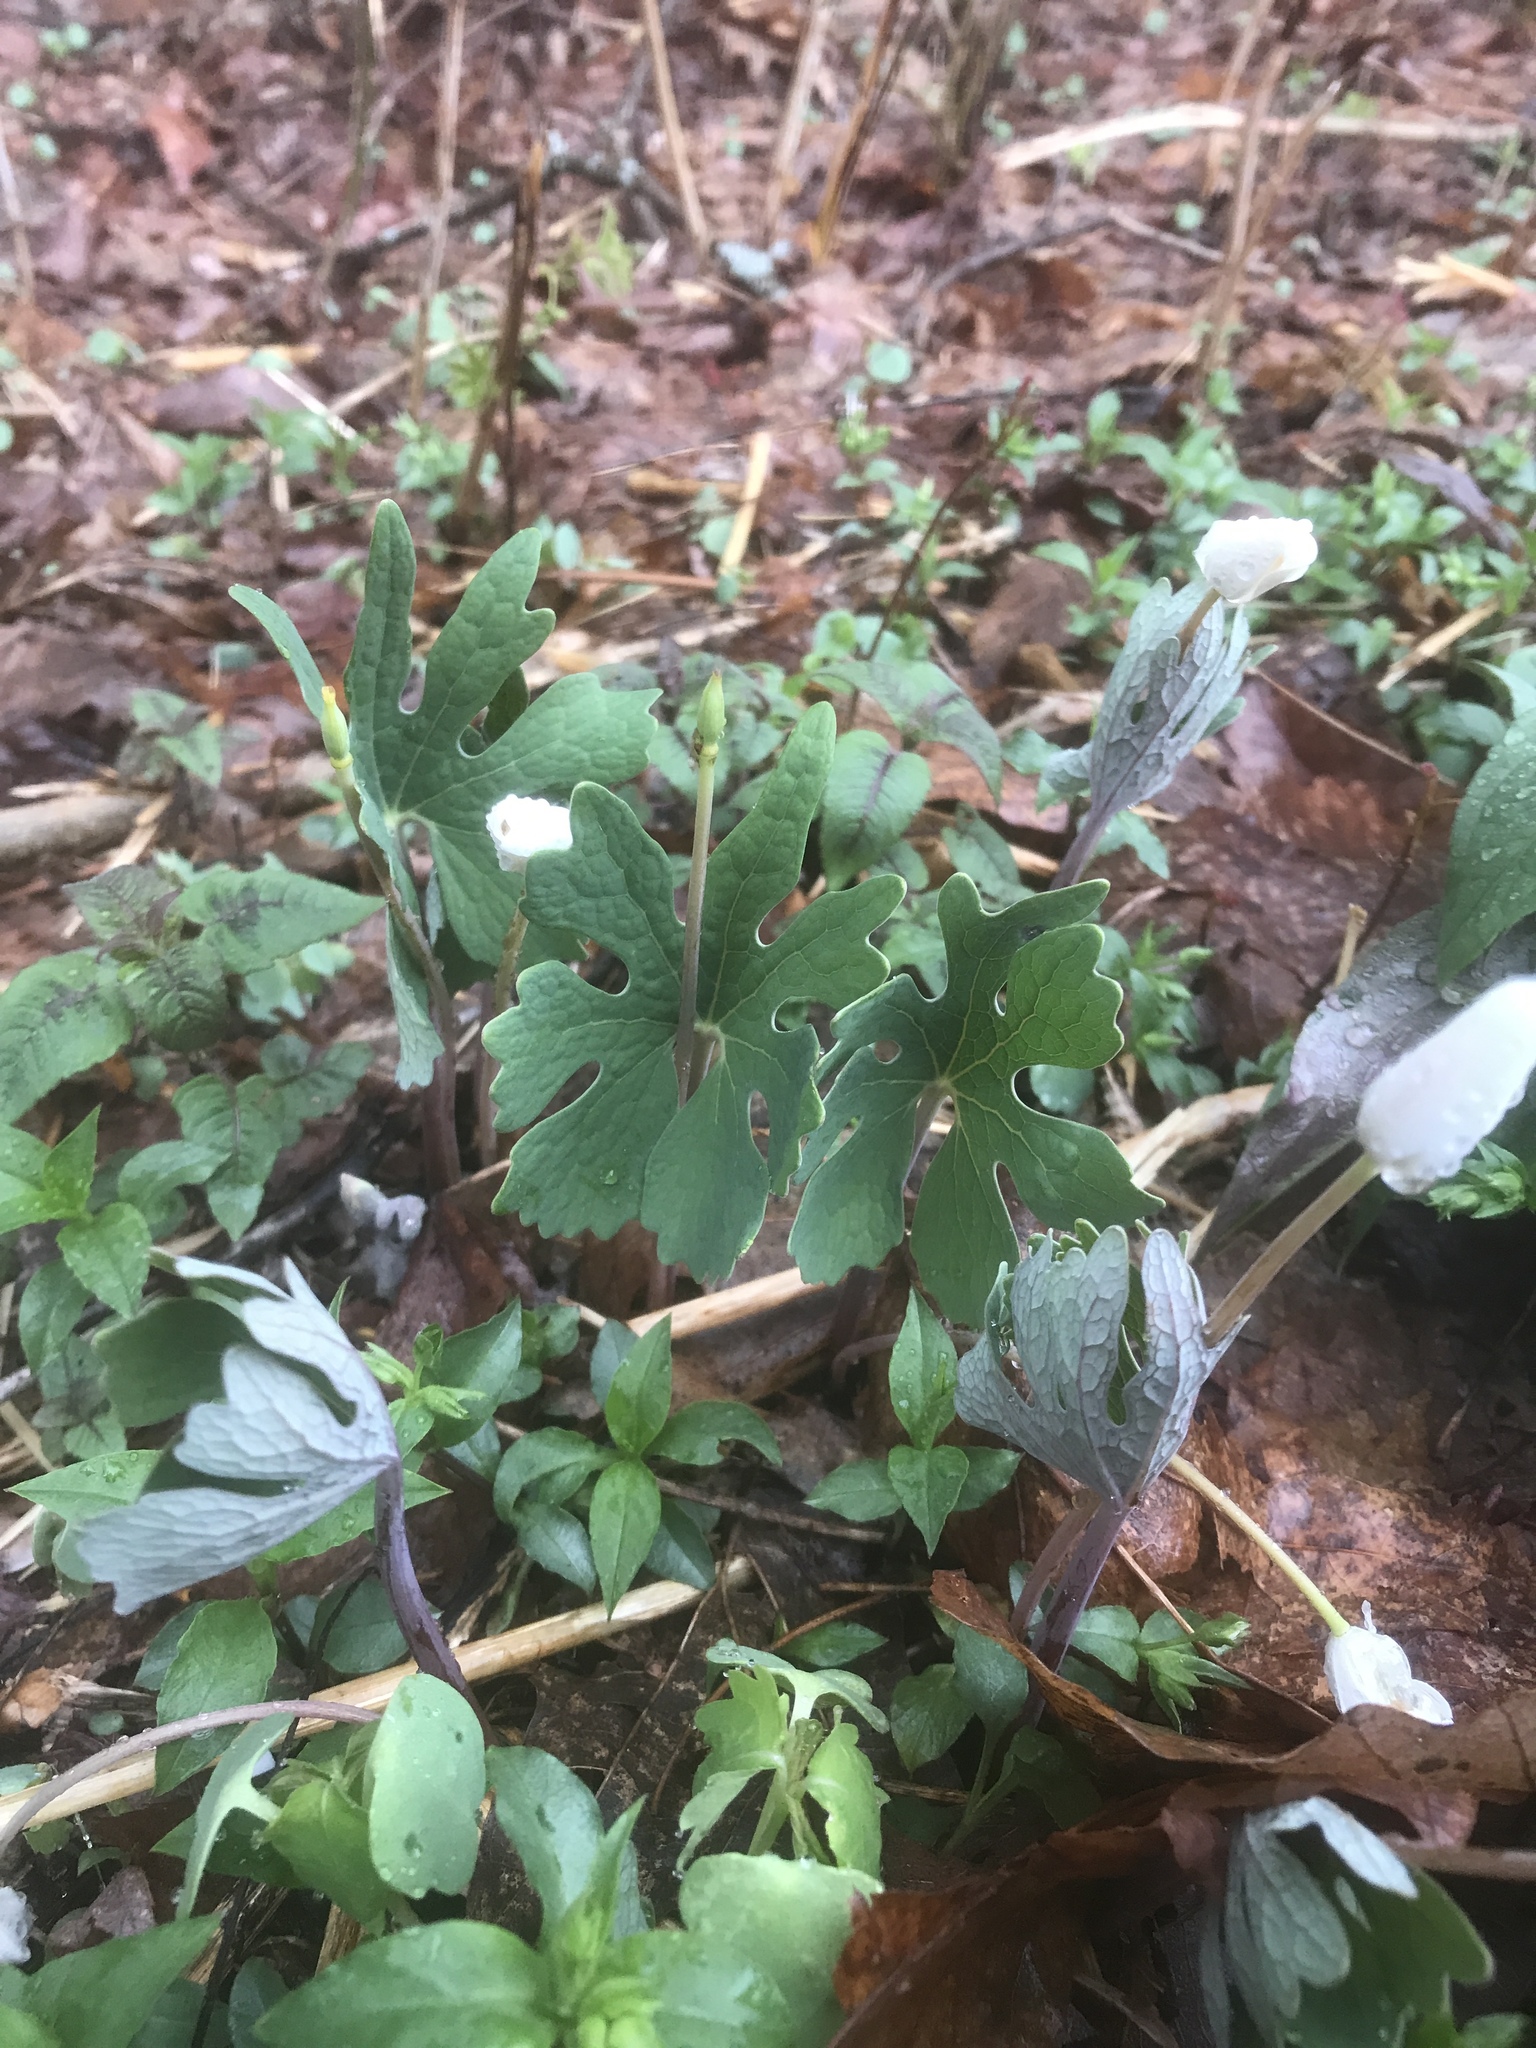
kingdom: Plantae
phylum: Tracheophyta
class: Magnoliopsida
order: Ranunculales
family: Papaveraceae
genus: Sanguinaria
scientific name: Sanguinaria canadensis
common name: Bloodroot
